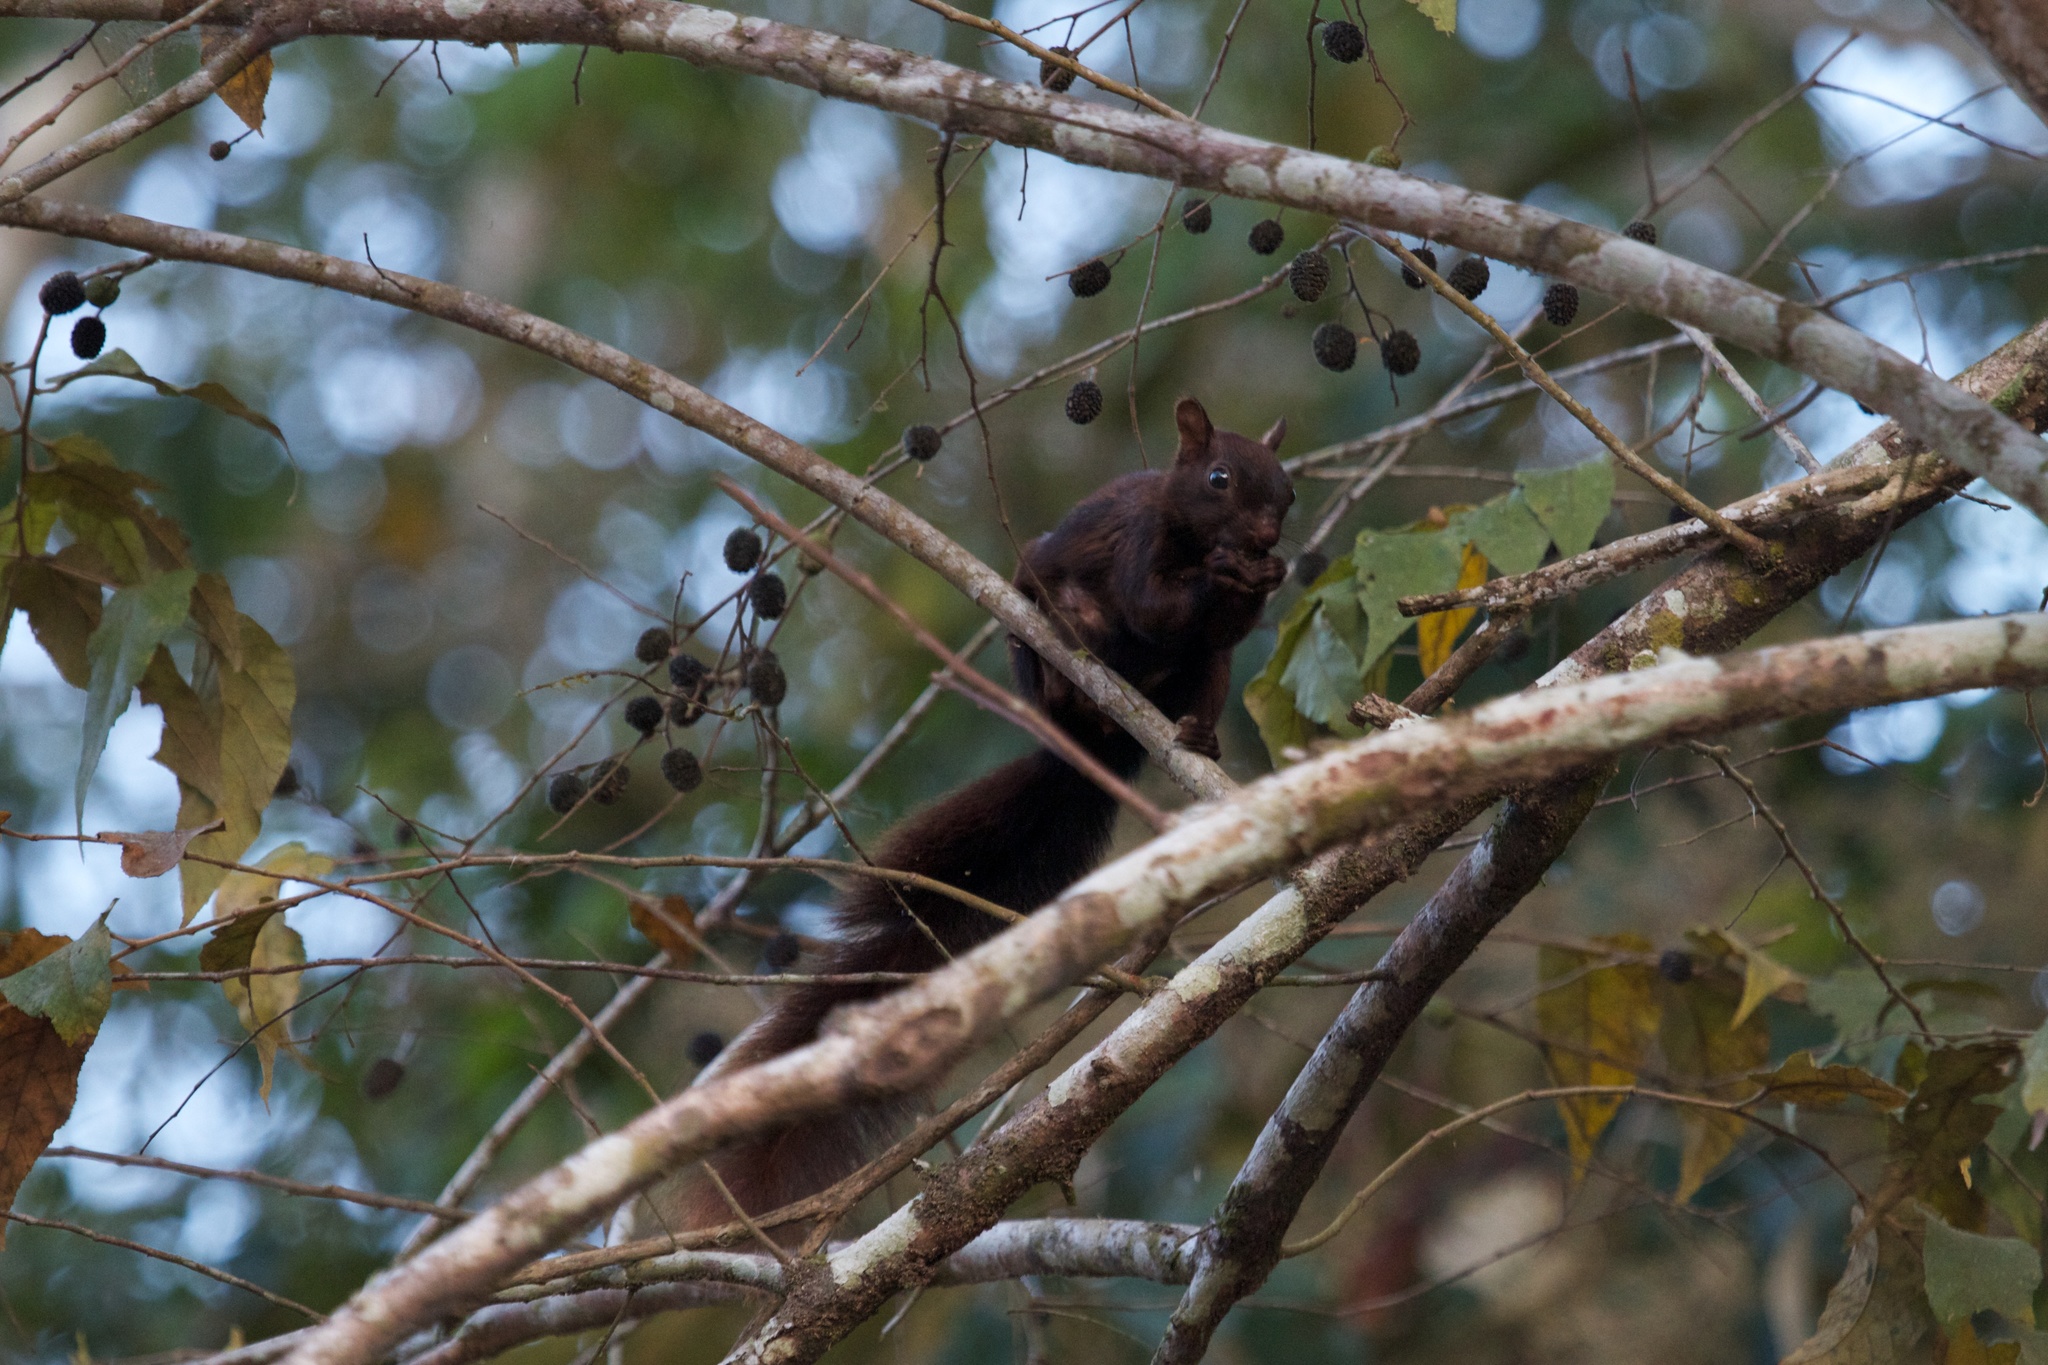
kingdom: Animalia
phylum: Chordata
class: Mammalia
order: Rodentia
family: Sciuridae
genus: Sciurus
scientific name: Sciurus variegatoides
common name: Variegated squirrel
